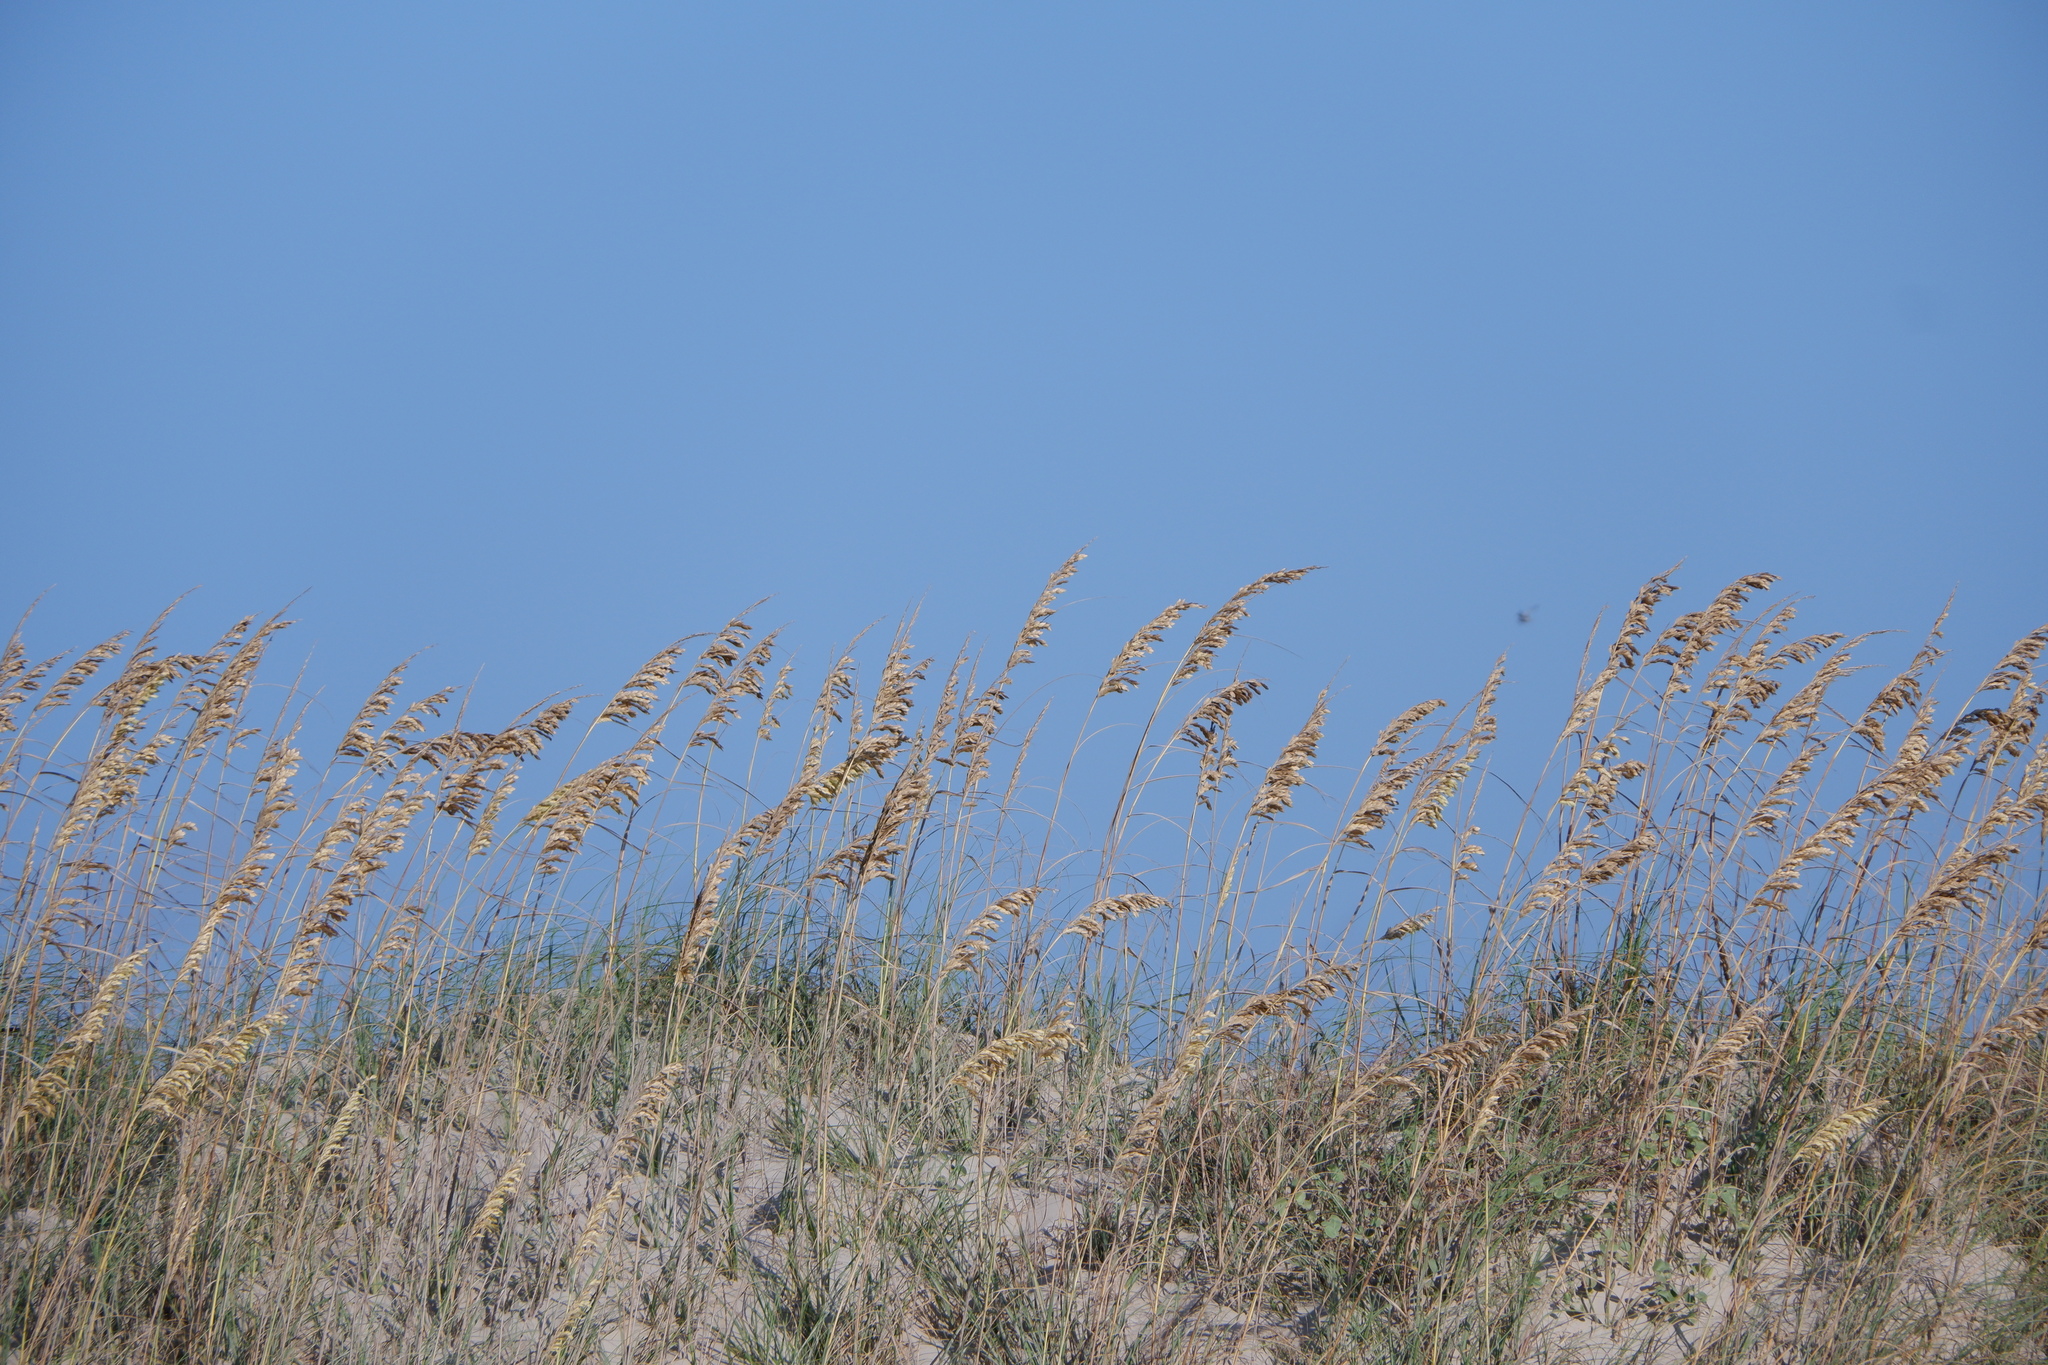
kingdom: Plantae
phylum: Tracheophyta
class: Liliopsida
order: Poales
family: Poaceae
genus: Uniola
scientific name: Uniola paniculata
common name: Seaside-oats
